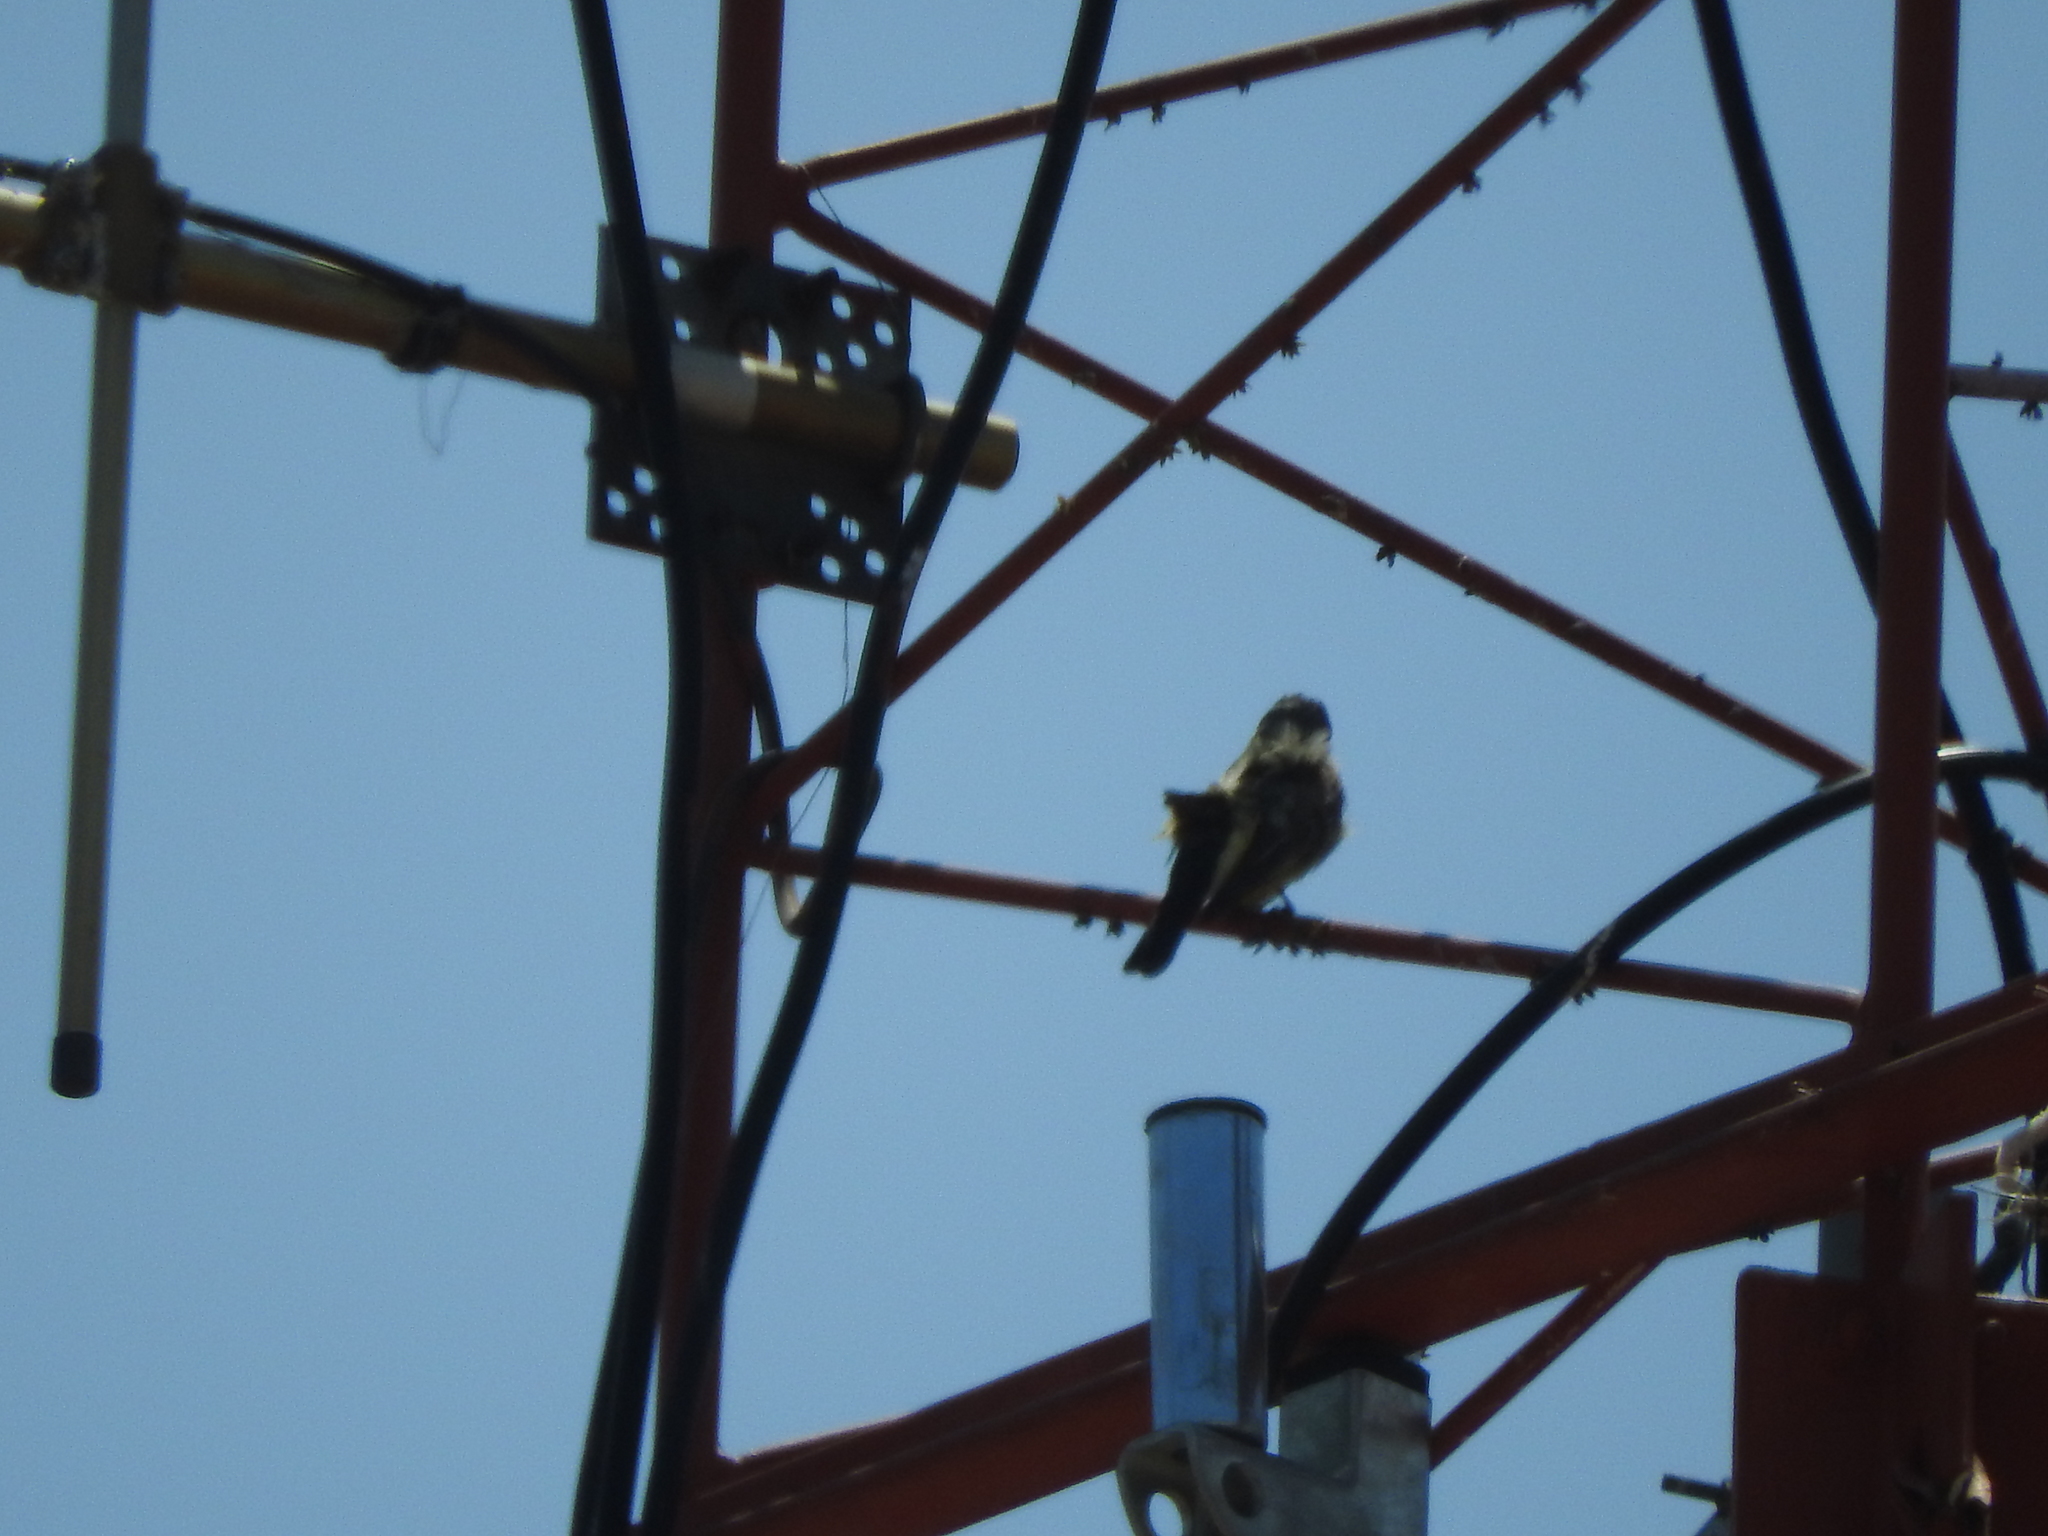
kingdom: Animalia
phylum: Chordata
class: Aves
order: Passeriformes
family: Tyrannidae
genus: Tyrannus
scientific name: Tyrannus melancholicus
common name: Tropical kingbird
